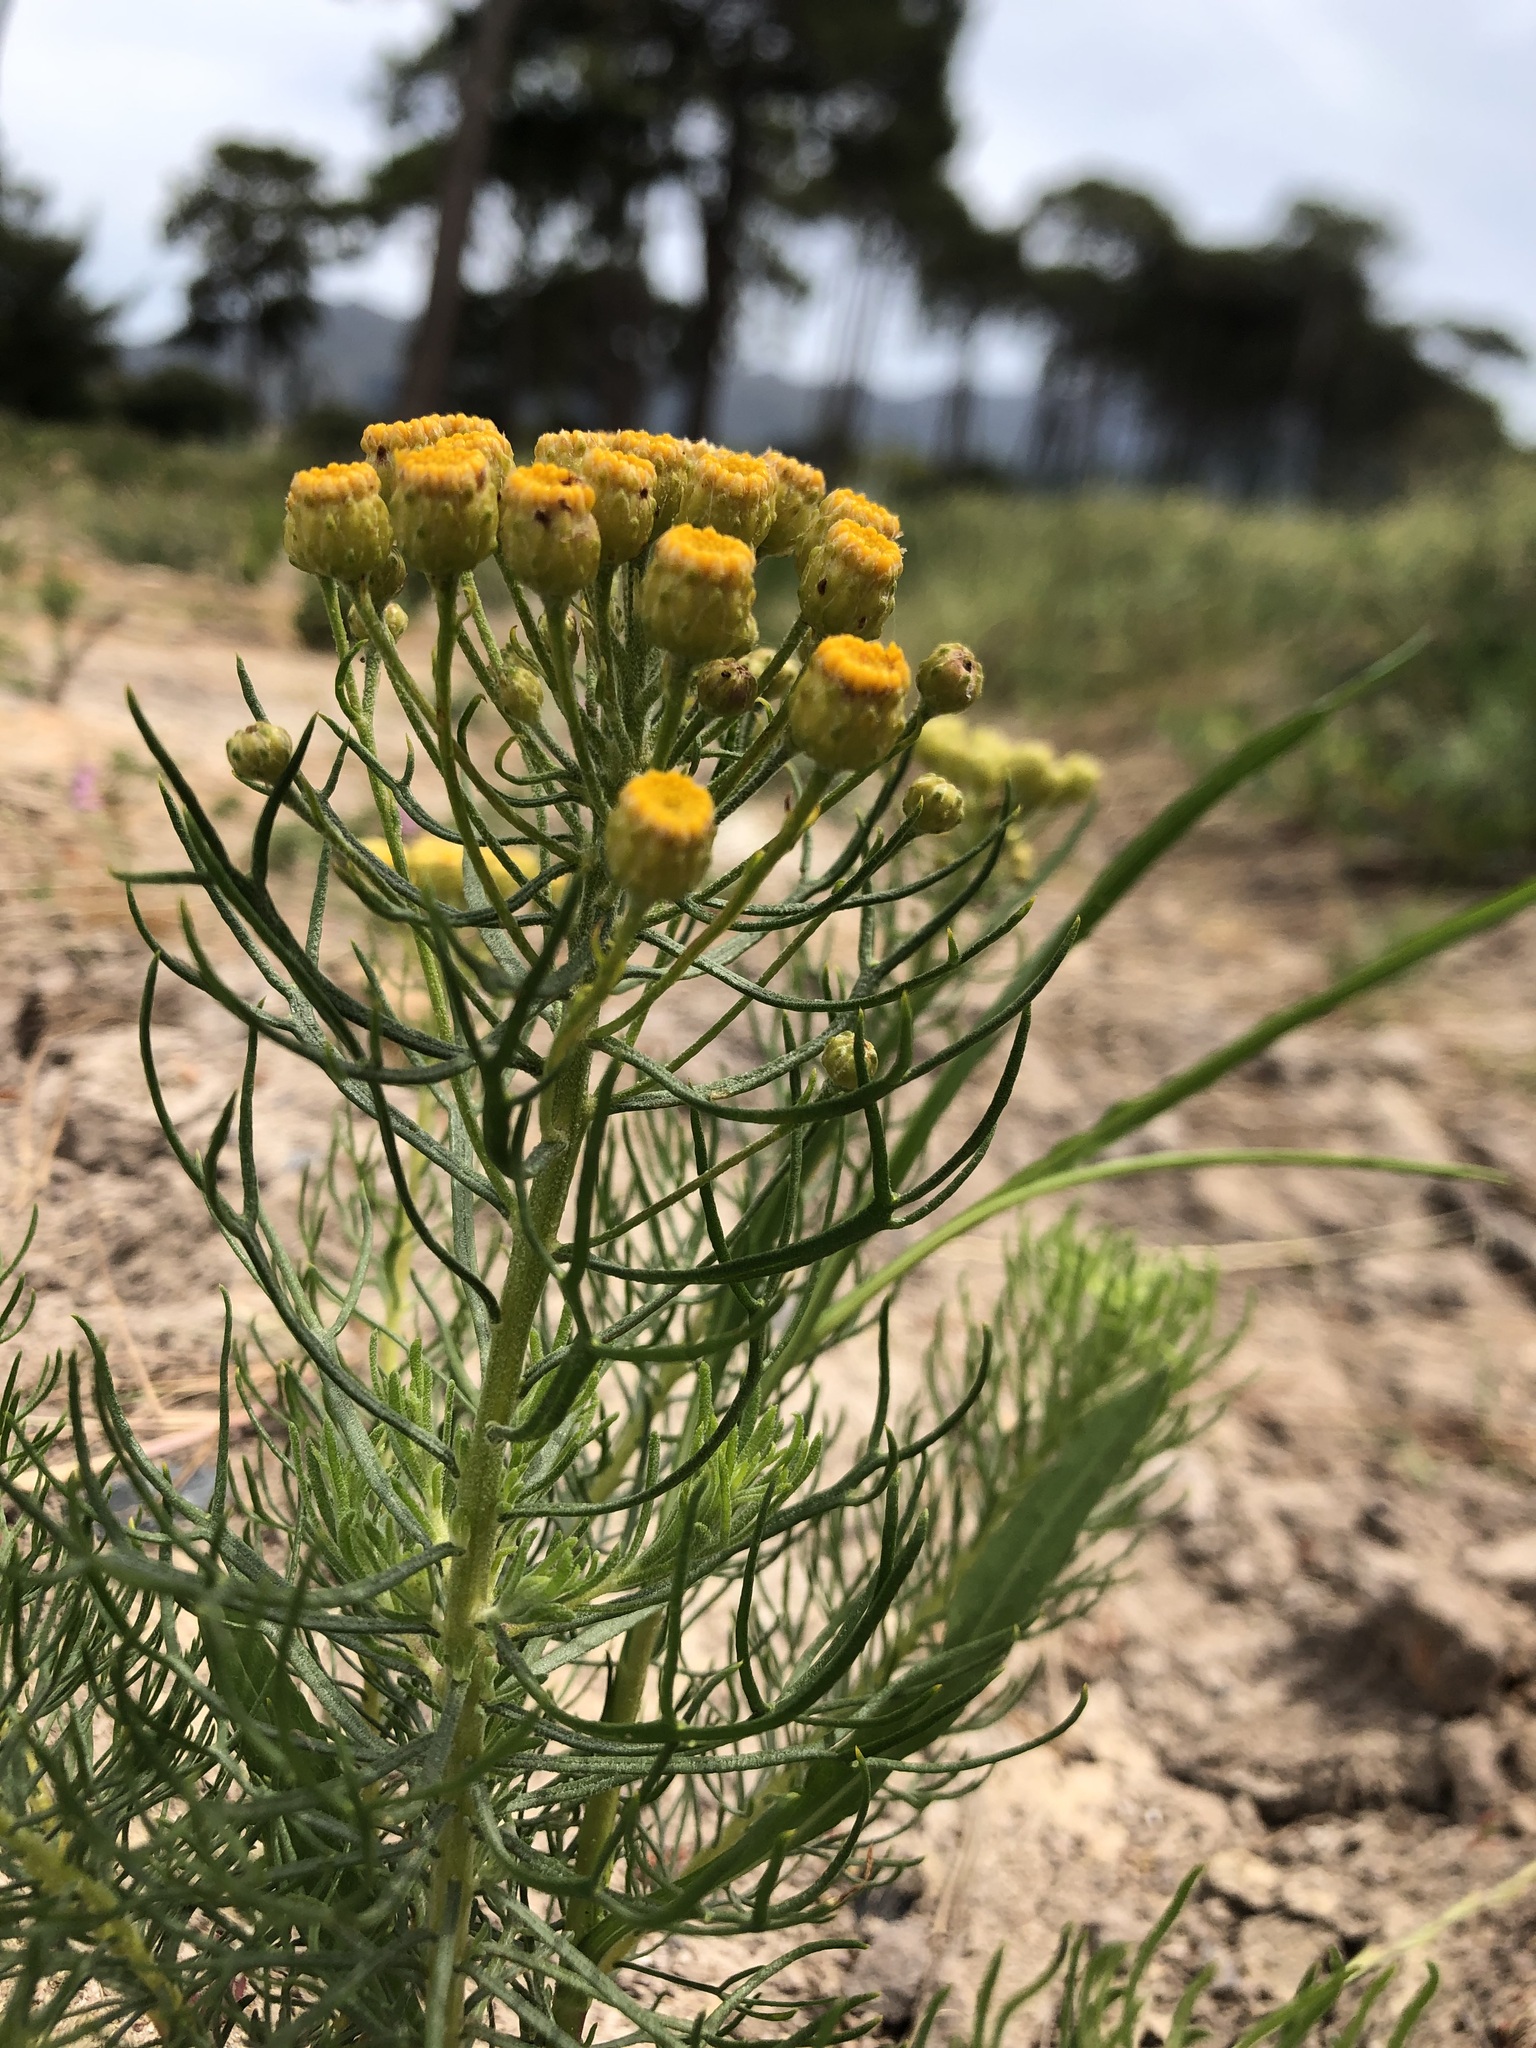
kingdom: Plantae
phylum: Tracheophyta
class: Magnoliopsida
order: Asterales
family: Asteraceae
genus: Athanasia
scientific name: Athanasia crithmifolia
